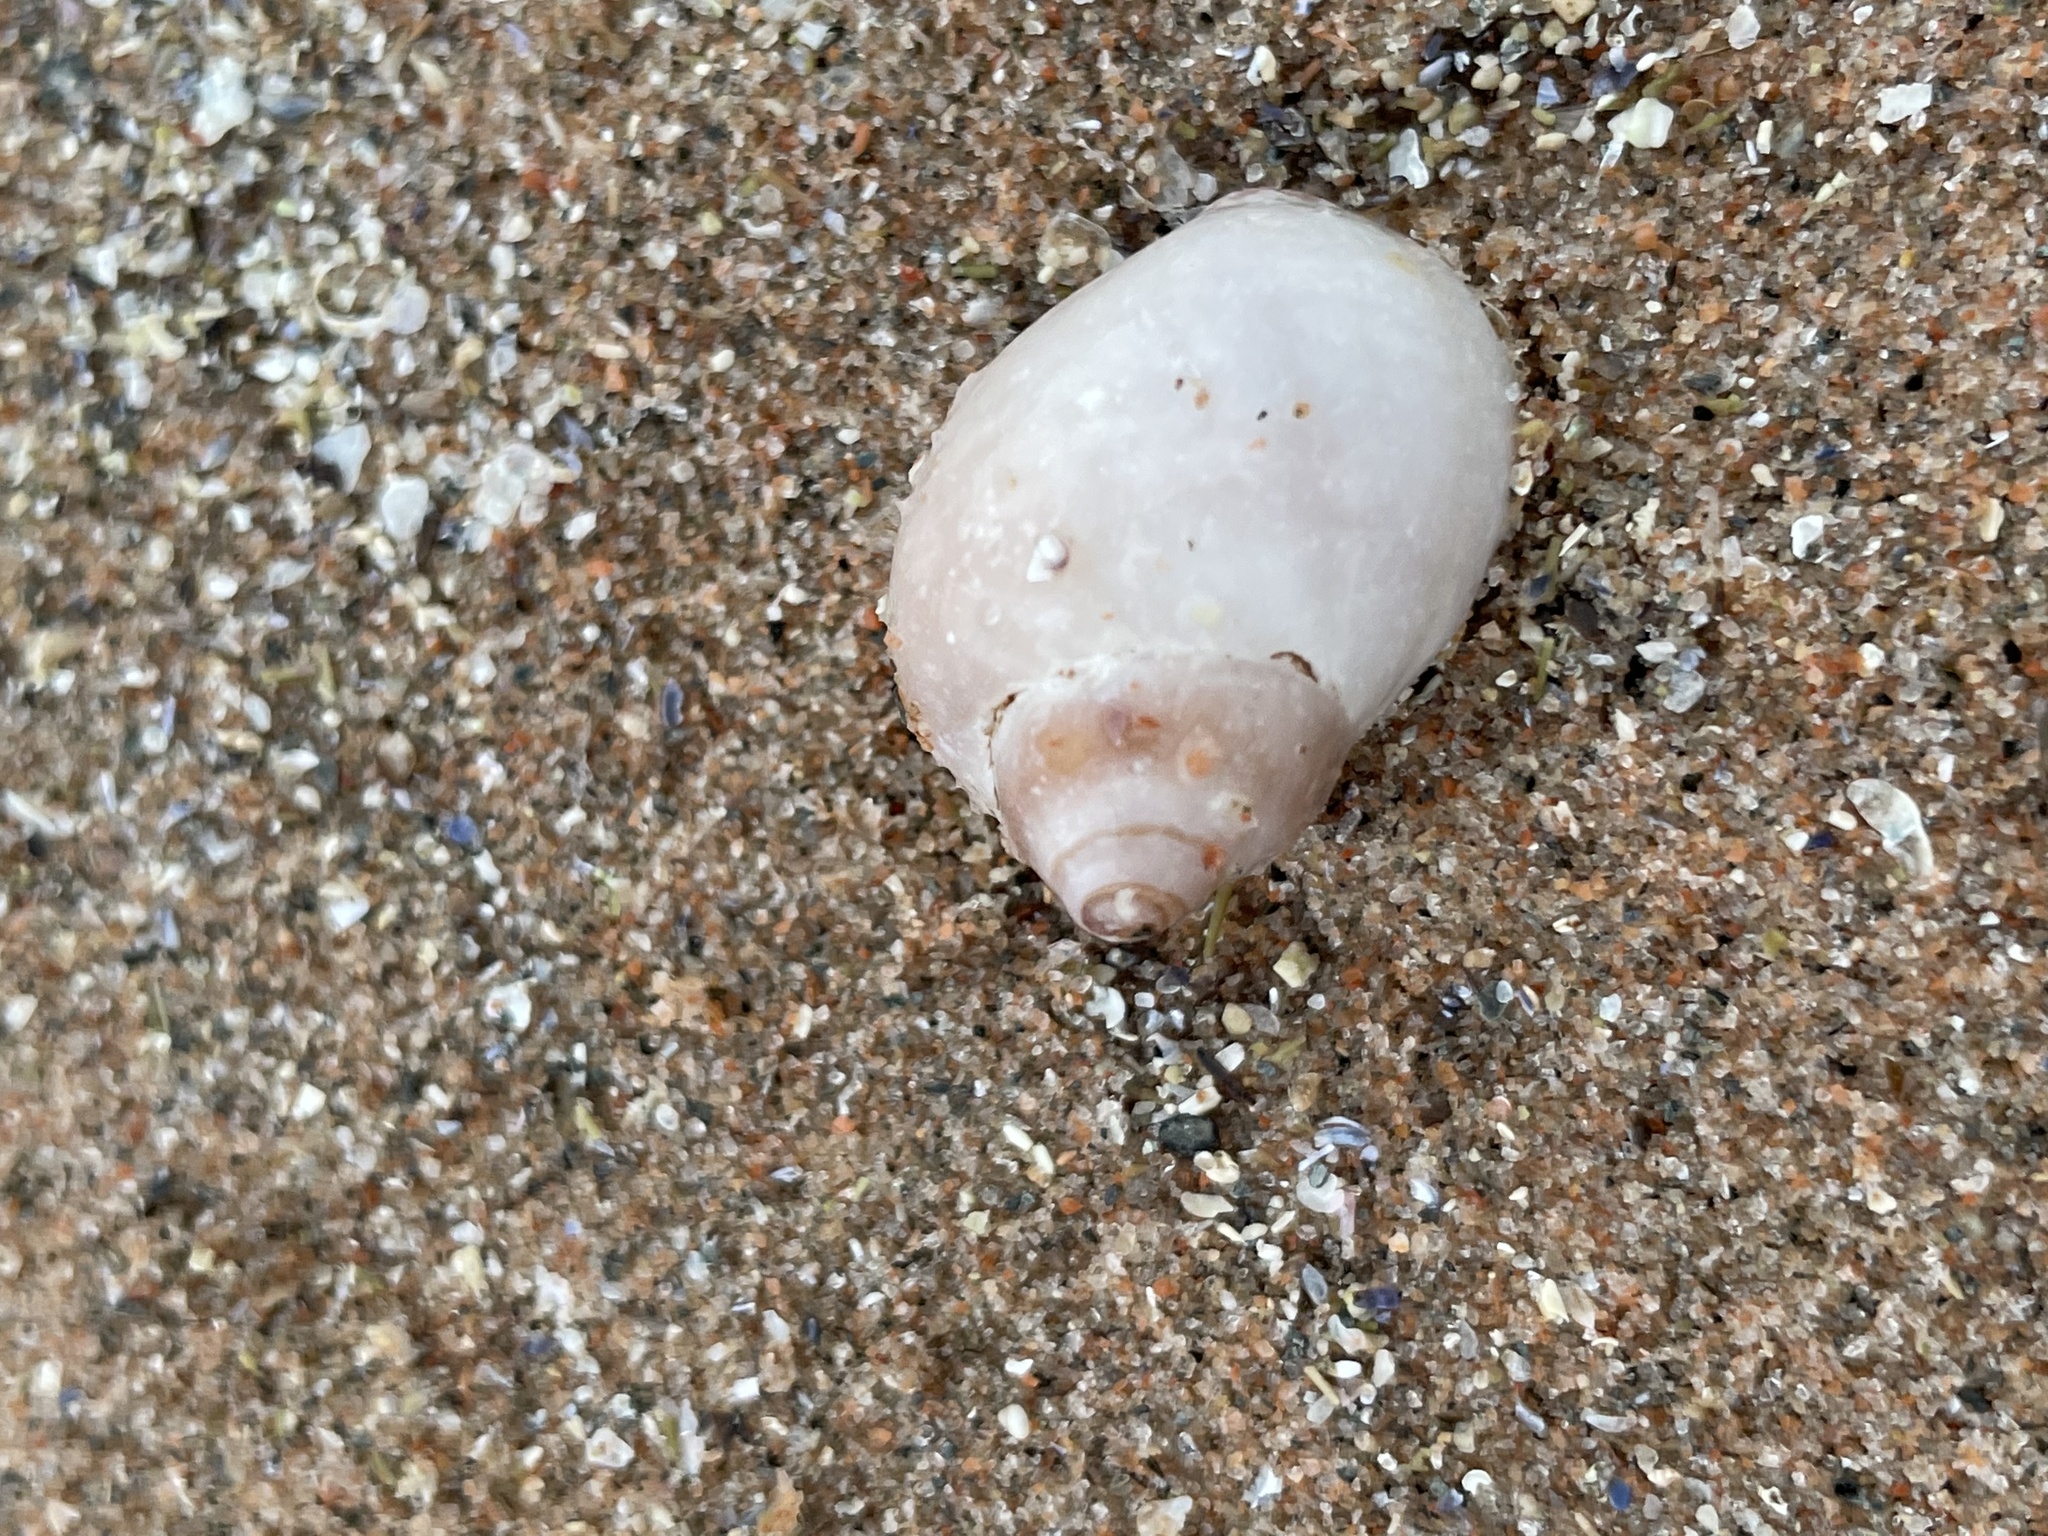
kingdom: Animalia
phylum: Mollusca
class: Gastropoda
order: Neogastropoda
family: Muricidae
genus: Nucella
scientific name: Nucella lapillus
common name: Dog whelk
